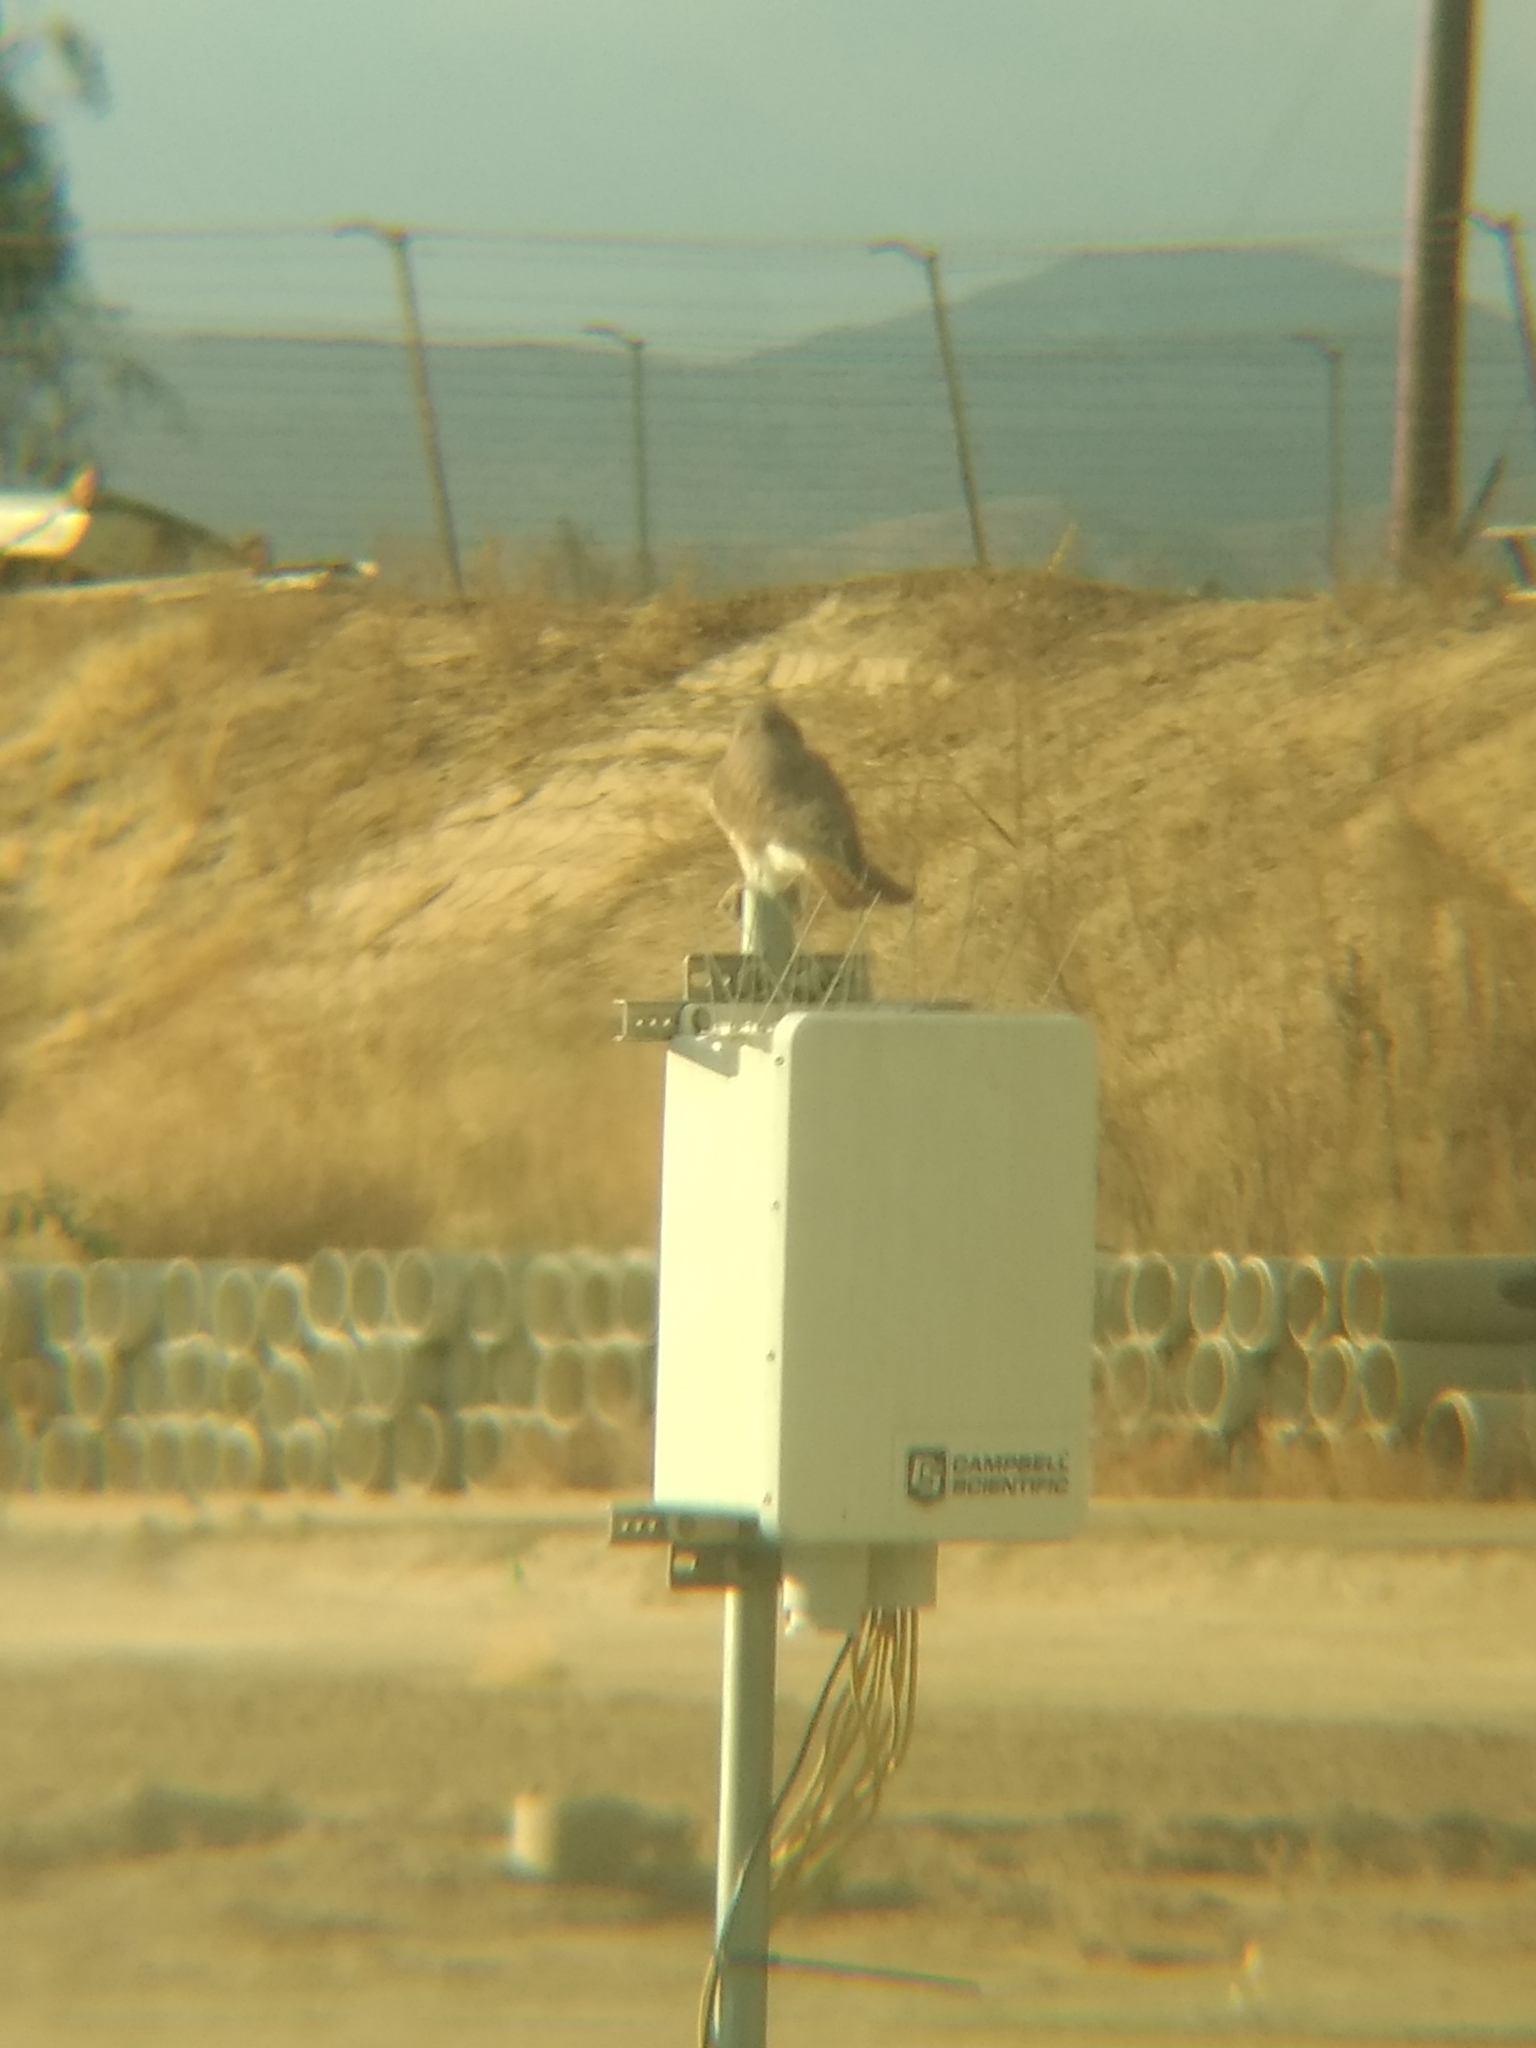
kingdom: Animalia
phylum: Chordata
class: Aves
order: Falconiformes
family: Falconidae
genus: Falco
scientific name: Falco sparverius
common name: American kestrel
